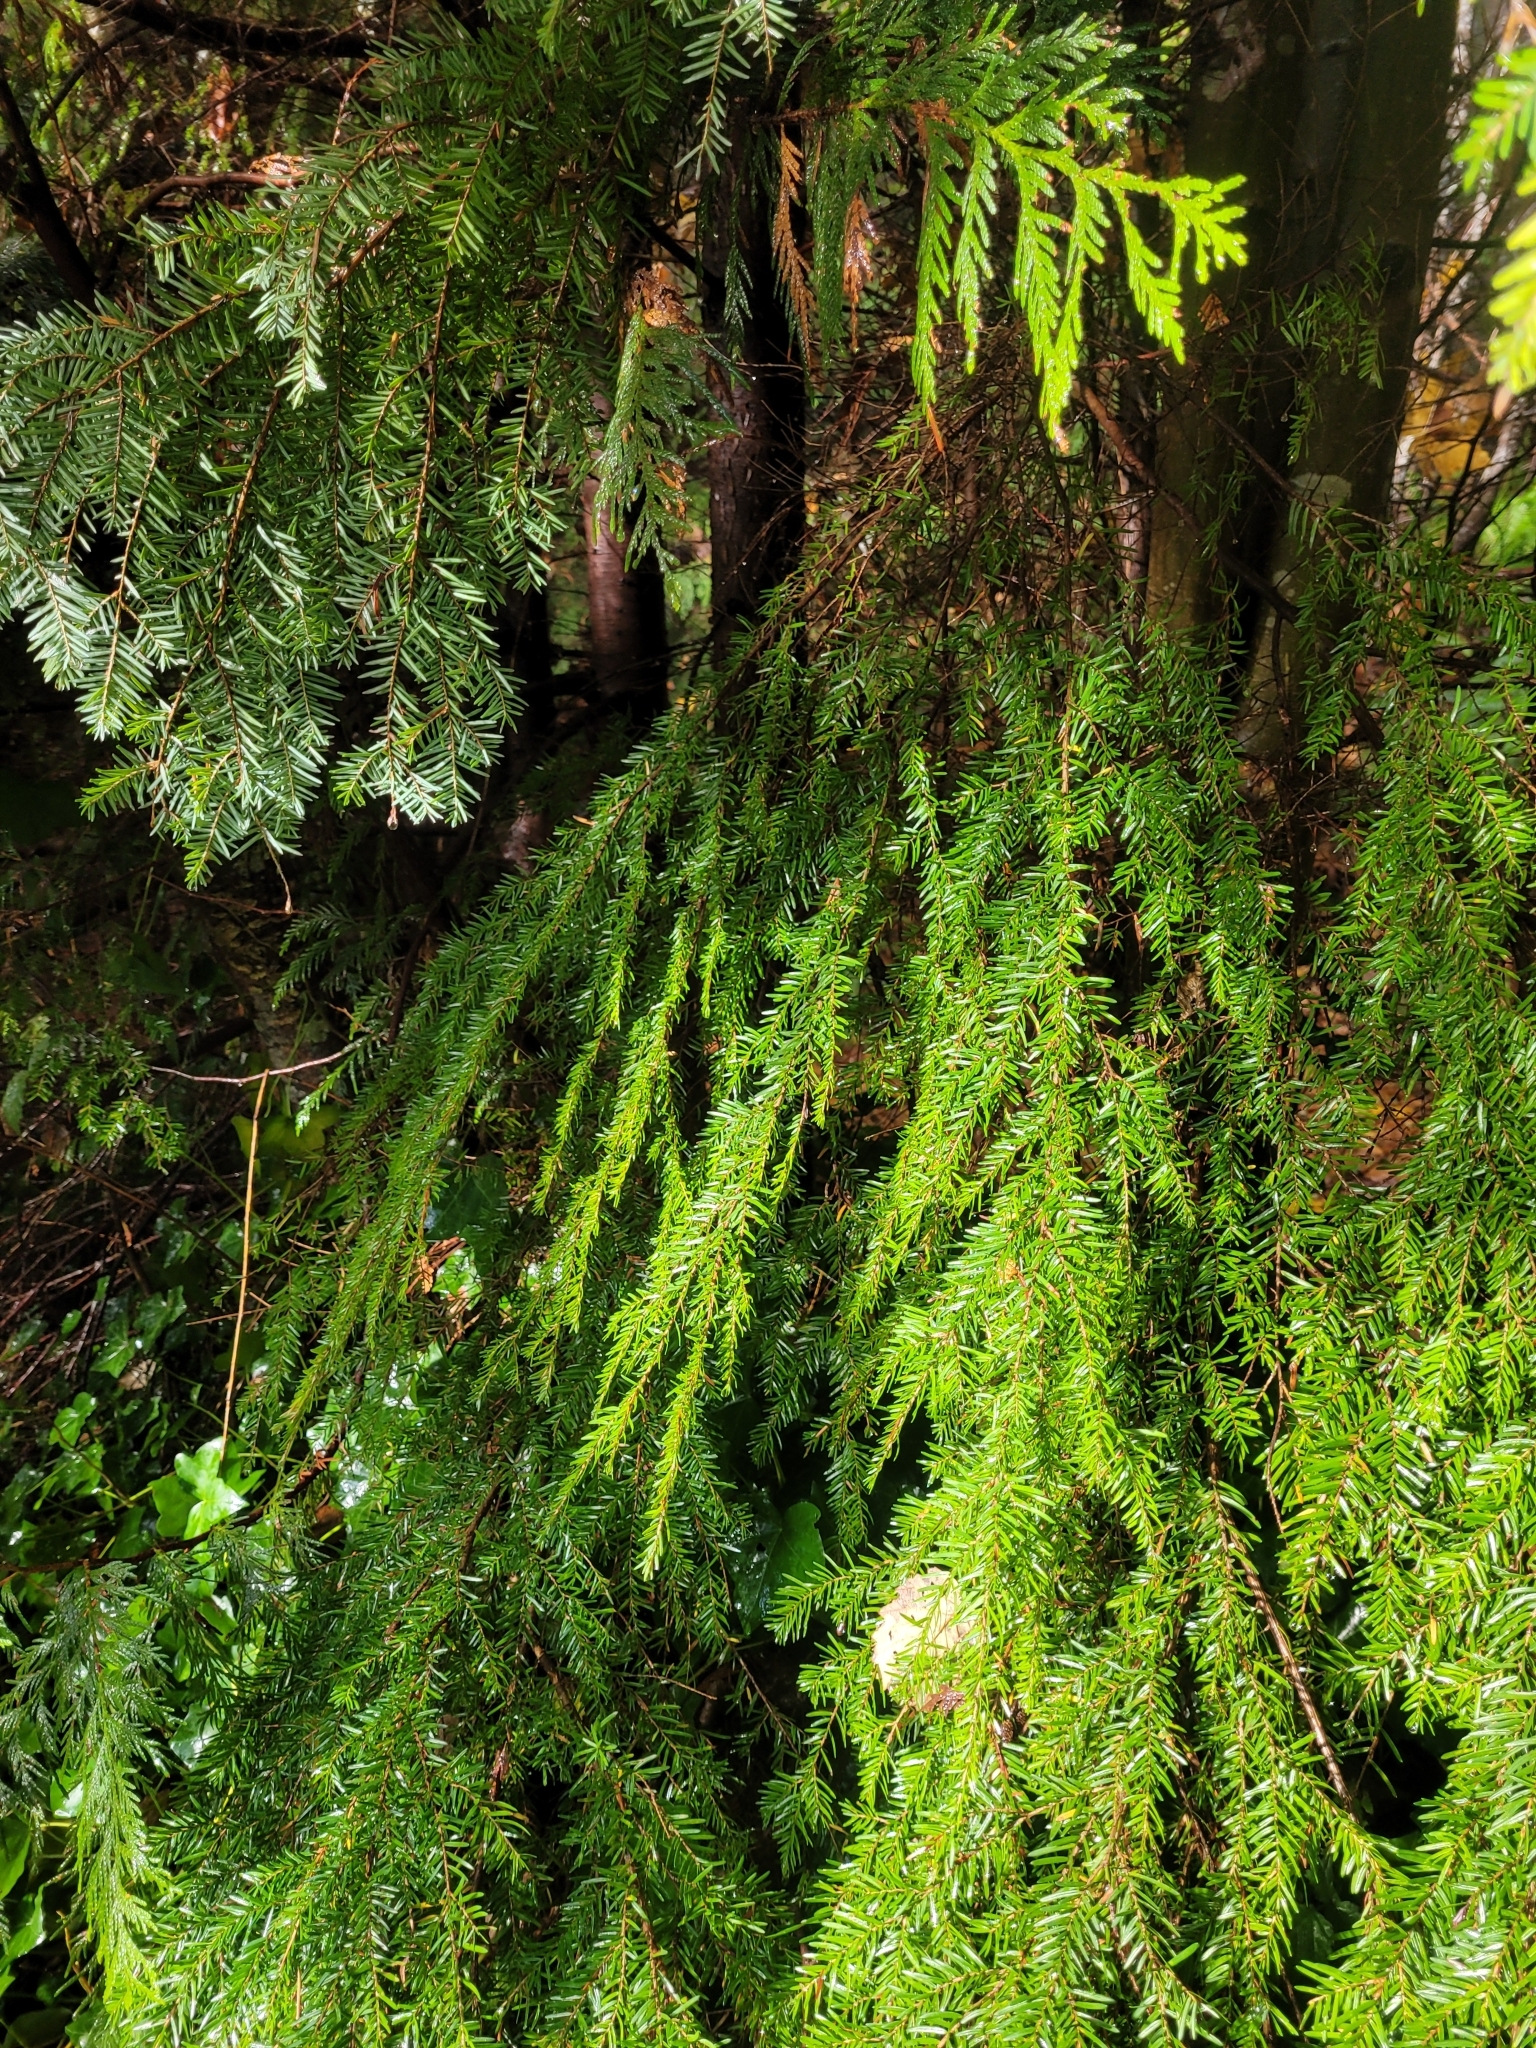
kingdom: Plantae
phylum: Tracheophyta
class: Pinopsida
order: Pinales
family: Pinaceae
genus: Tsuga
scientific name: Tsuga heterophylla
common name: Western hemlock
